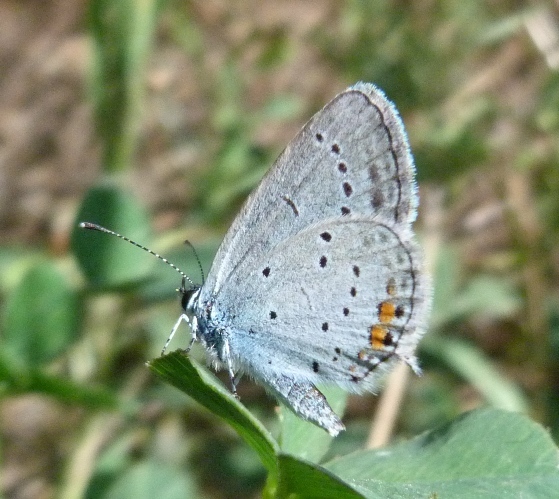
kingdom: Animalia
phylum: Arthropoda
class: Insecta
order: Lepidoptera
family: Lycaenidae
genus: Elkalyce
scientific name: Elkalyce argiades
